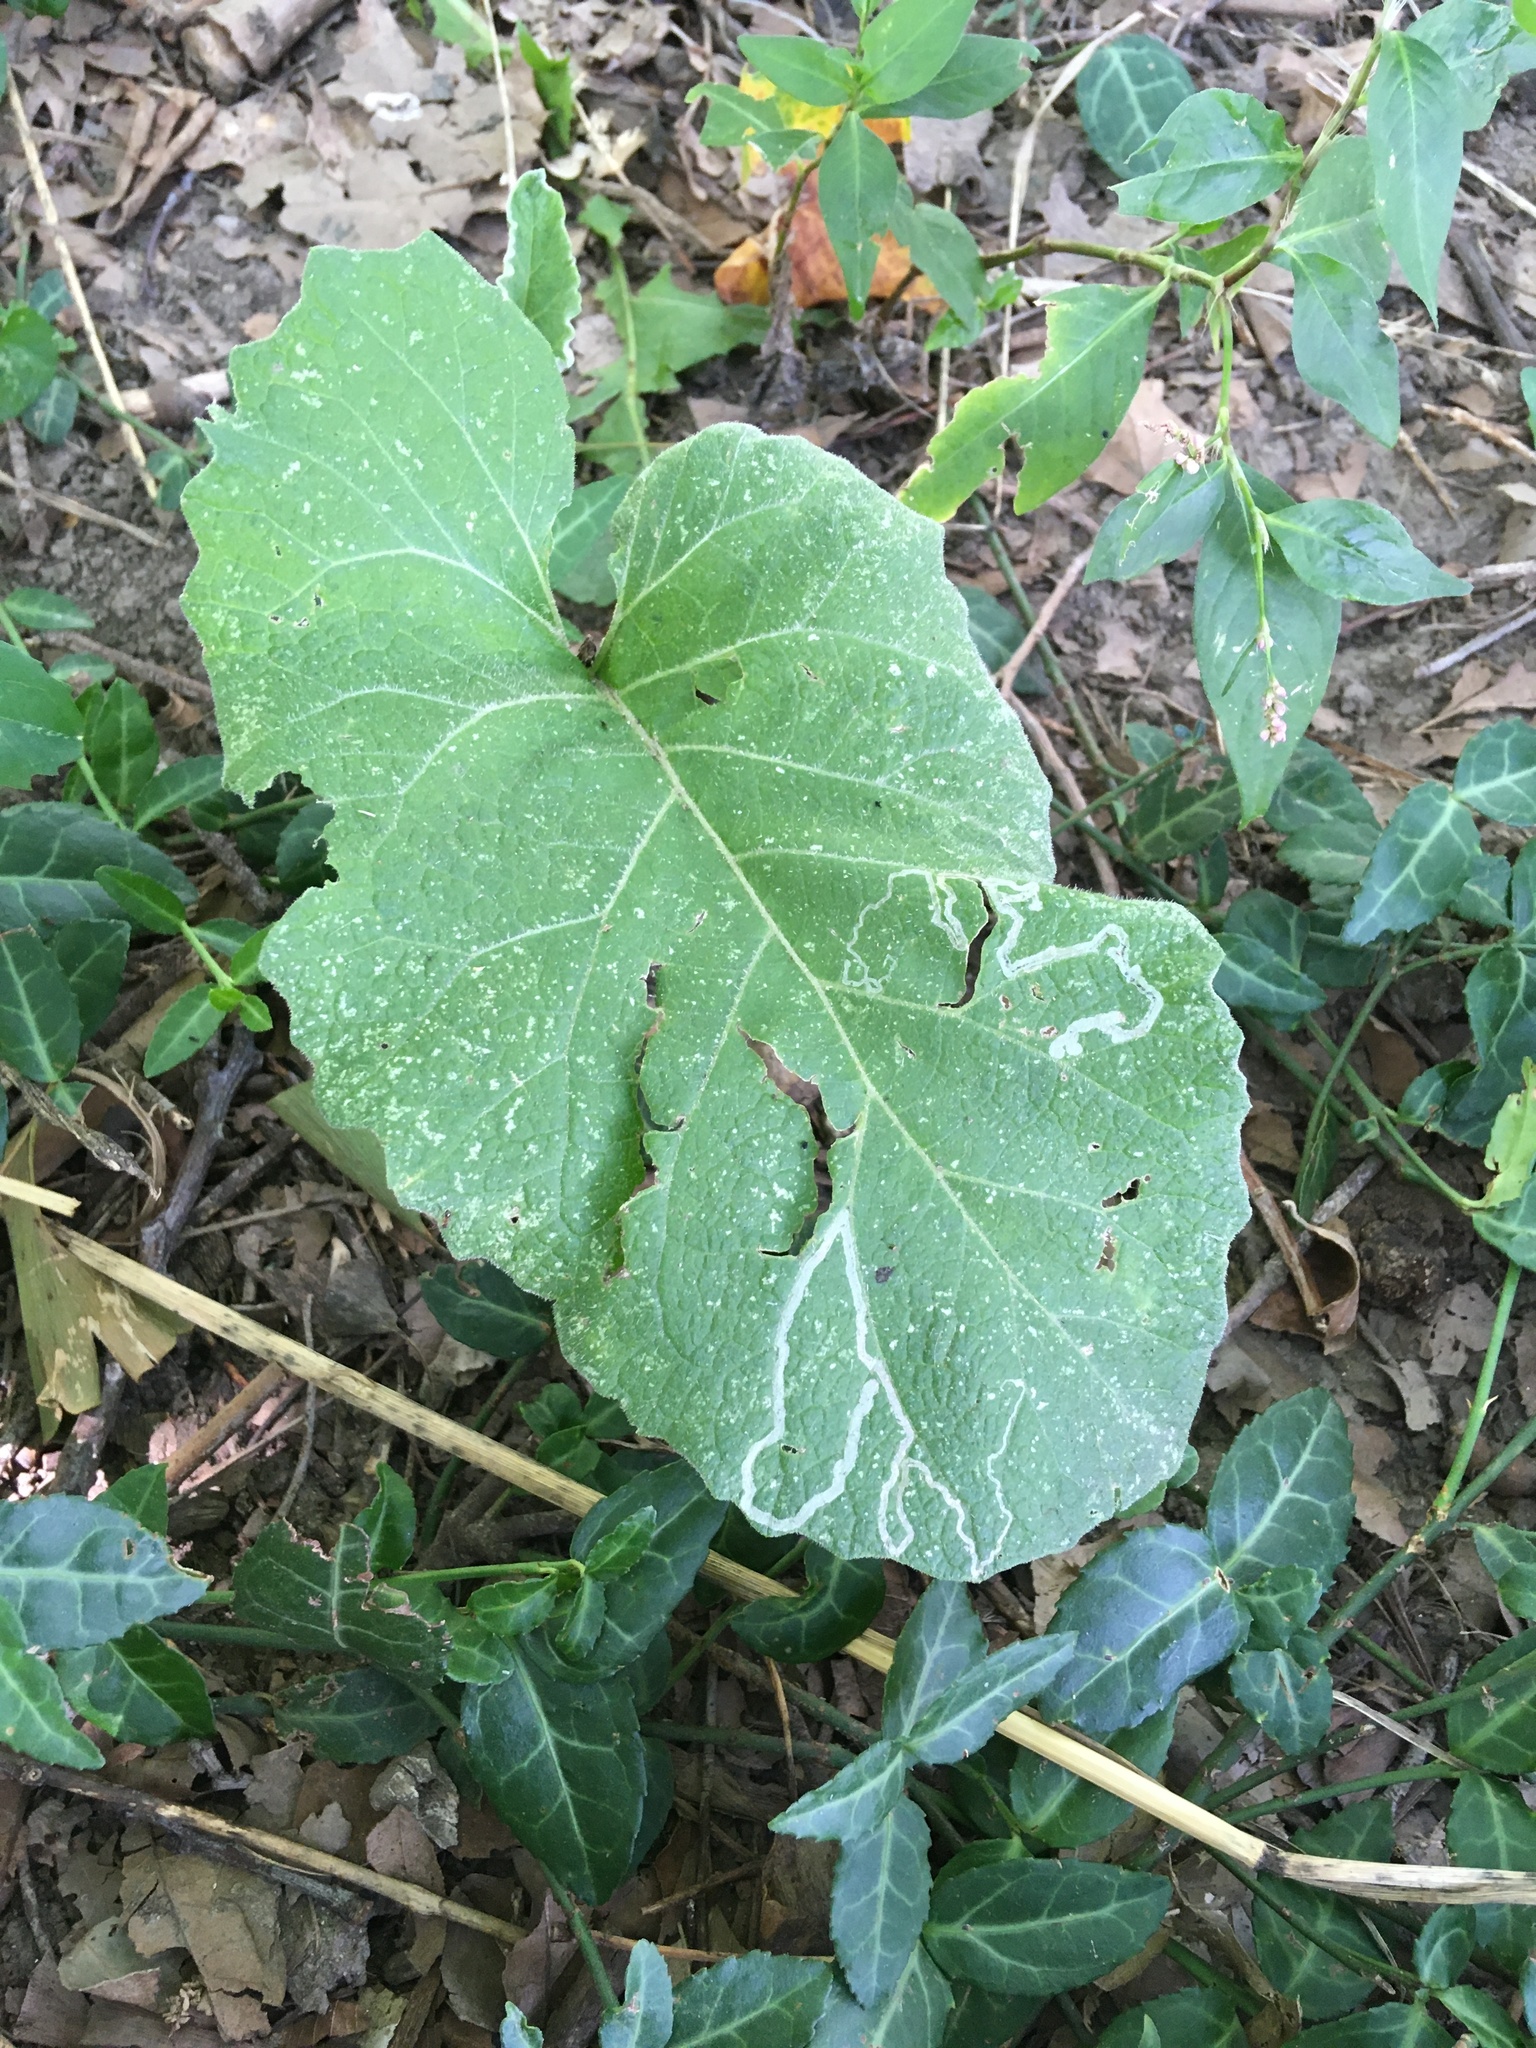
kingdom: Animalia
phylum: Arthropoda
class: Insecta
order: Diptera
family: Agromyzidae
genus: Liriomyza
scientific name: Liriomyza arctii
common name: Burdock leafminer
